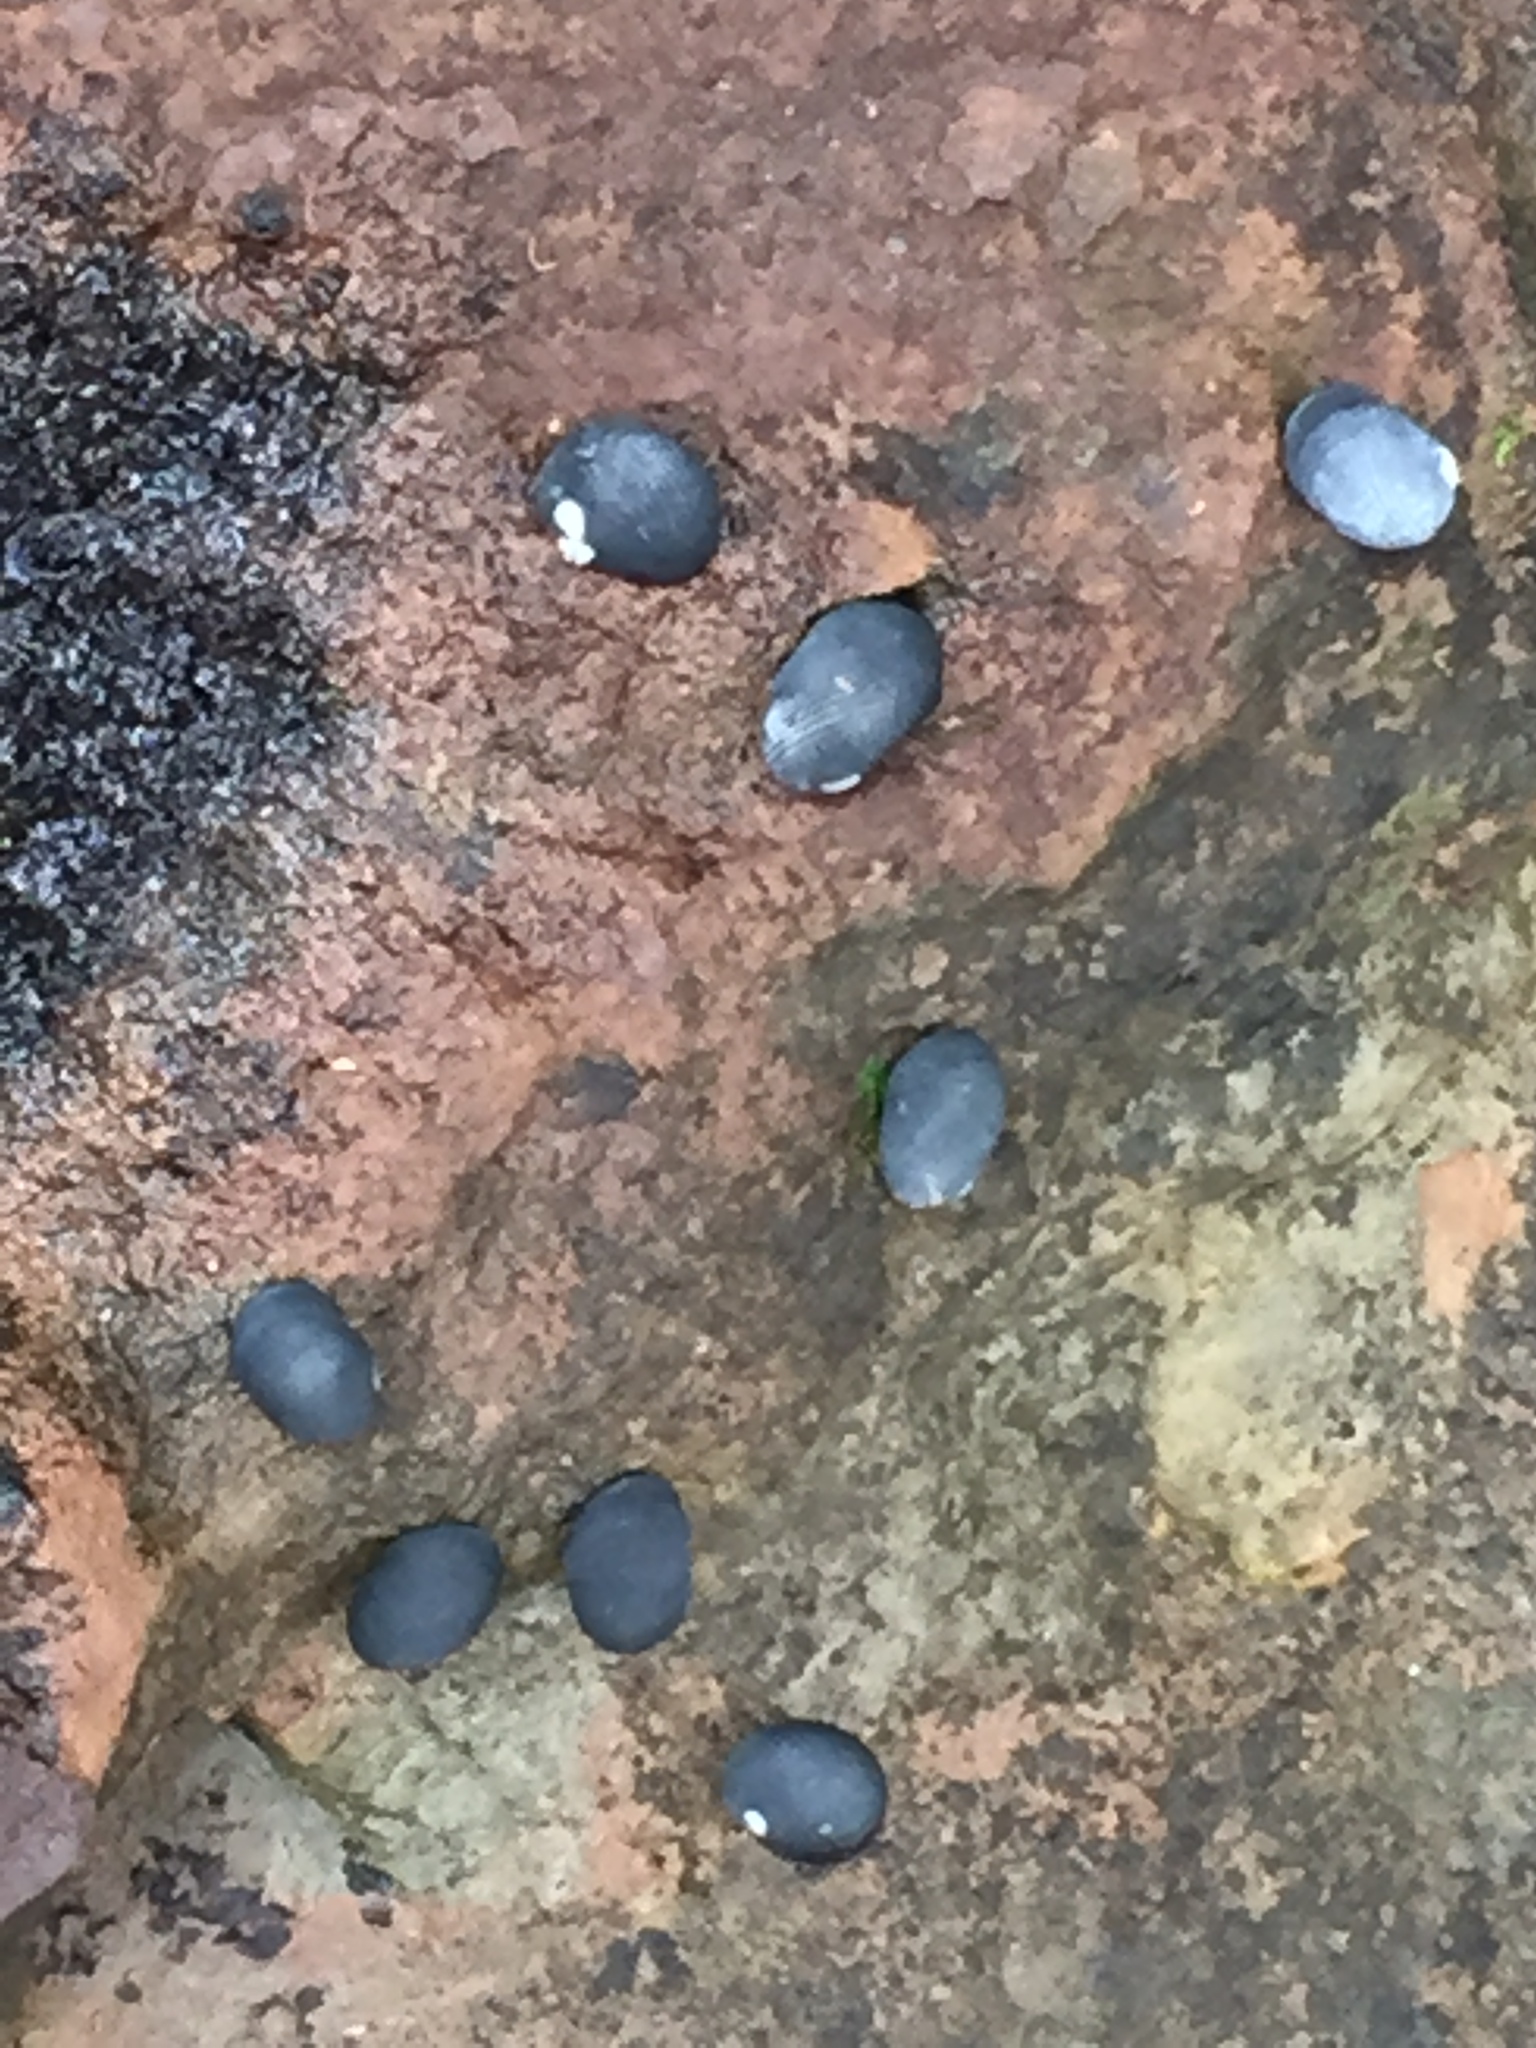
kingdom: Animalia
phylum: Mollusca
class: Gastropoda
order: Cycloneritida
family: Neritidae
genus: Nerita
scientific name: Nerita melanotragus
